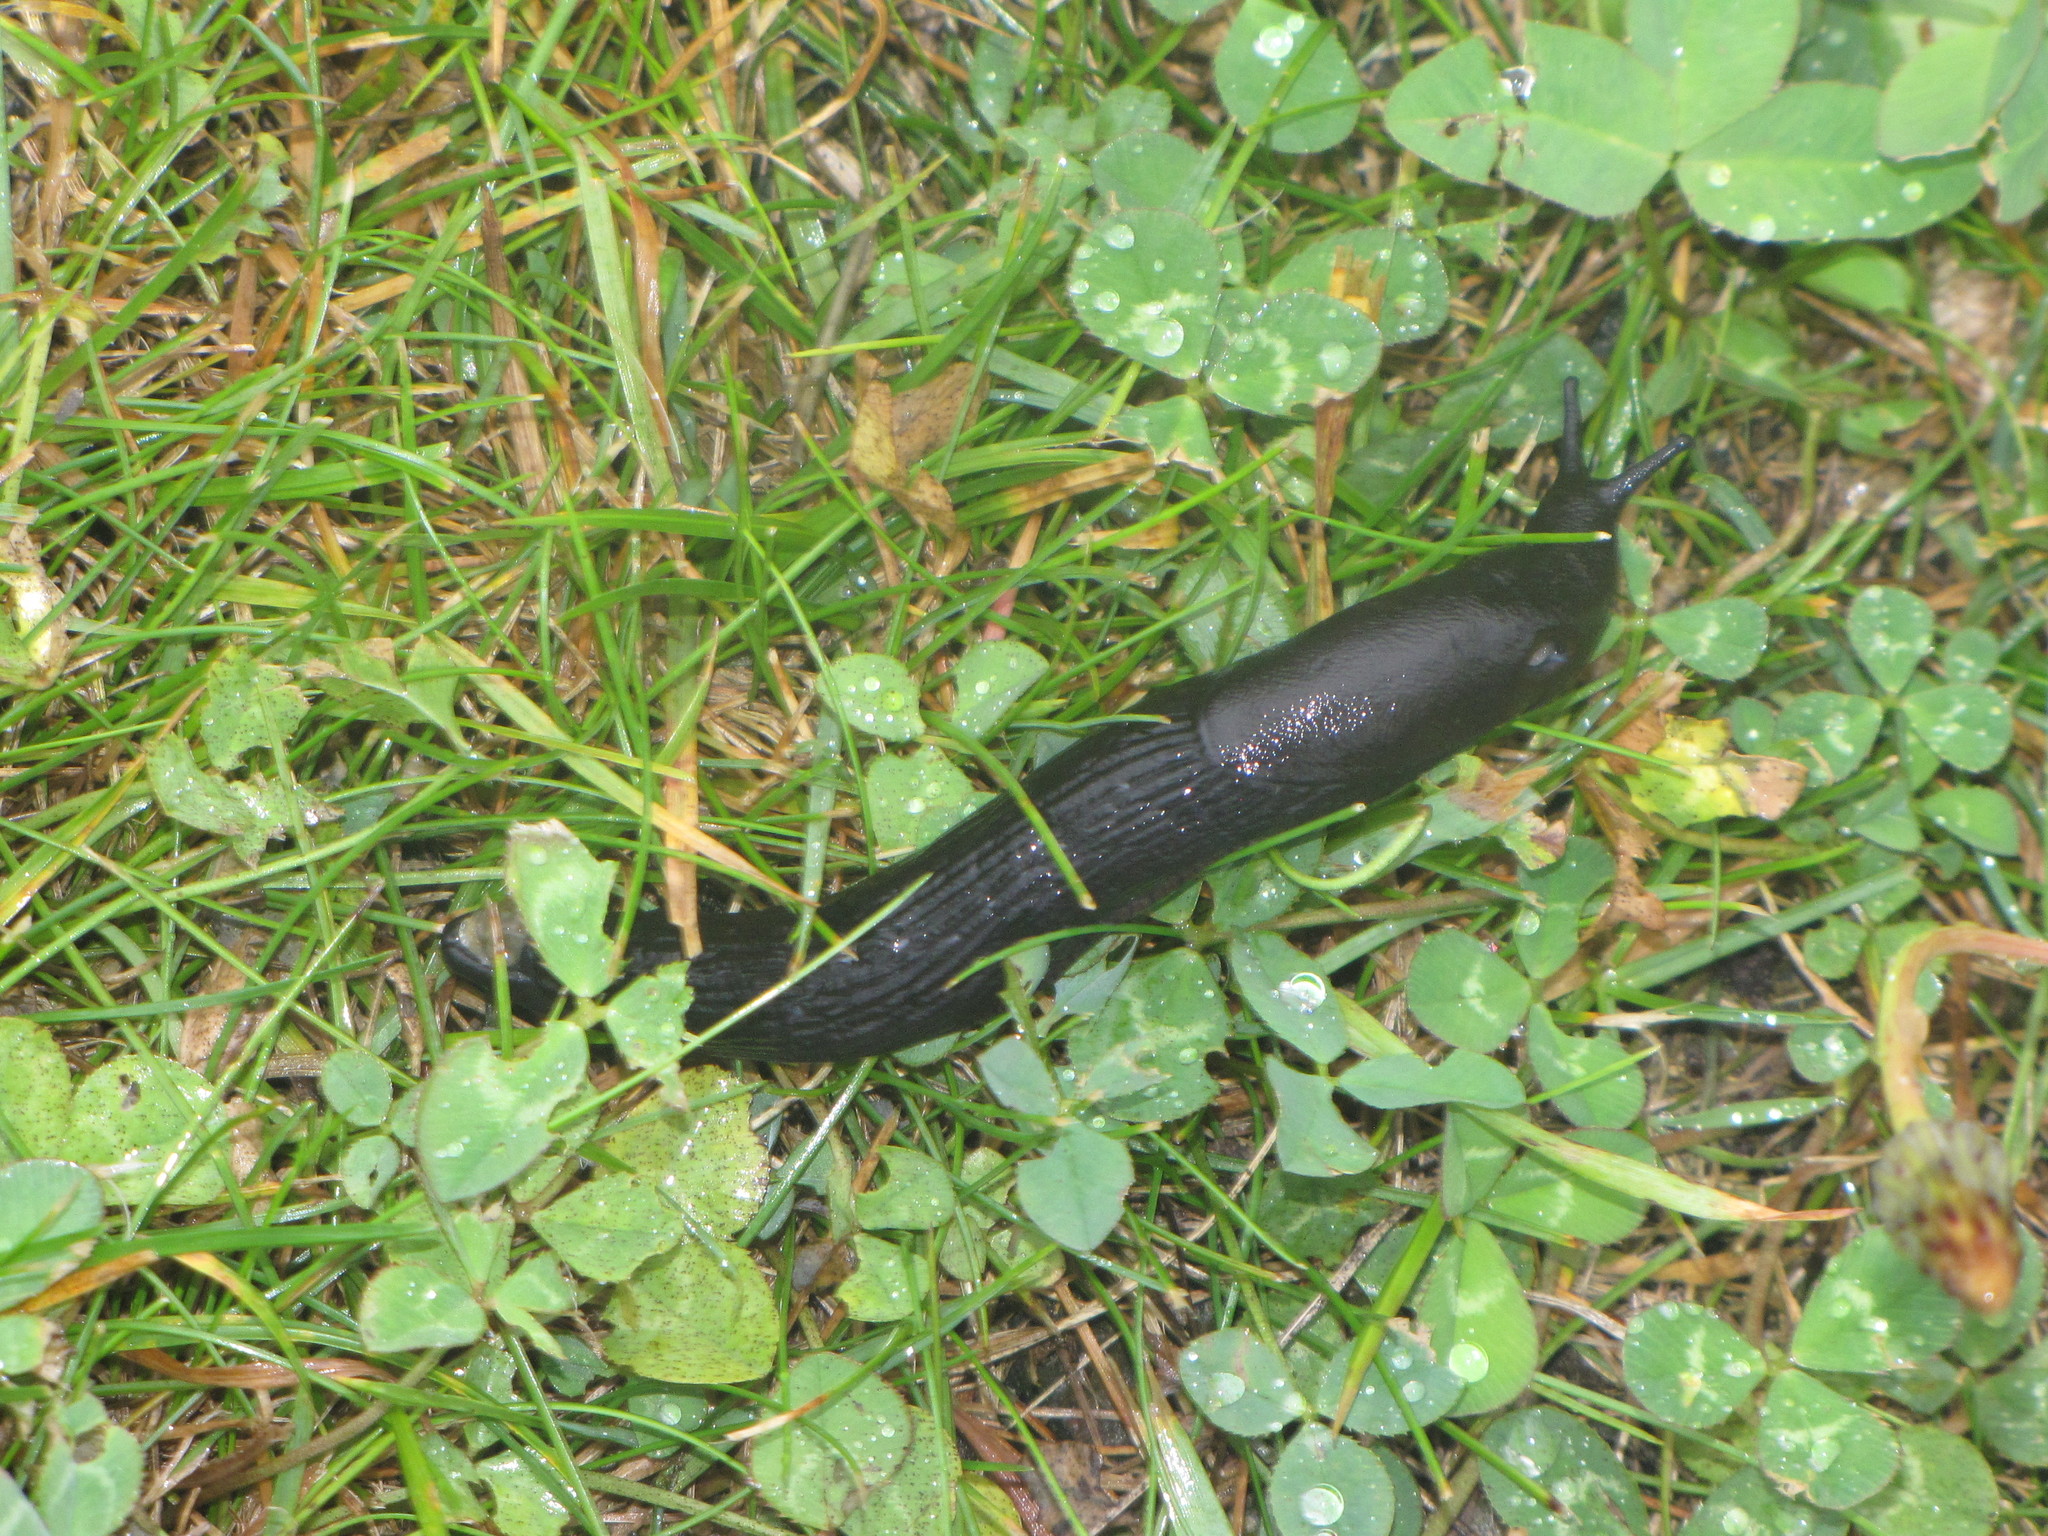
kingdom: Animalia
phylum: Mollusca
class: Gastropoda
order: Stylommatophora
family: Arionidae
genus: Arion
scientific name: Arion rufus
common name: Chocolate arion
